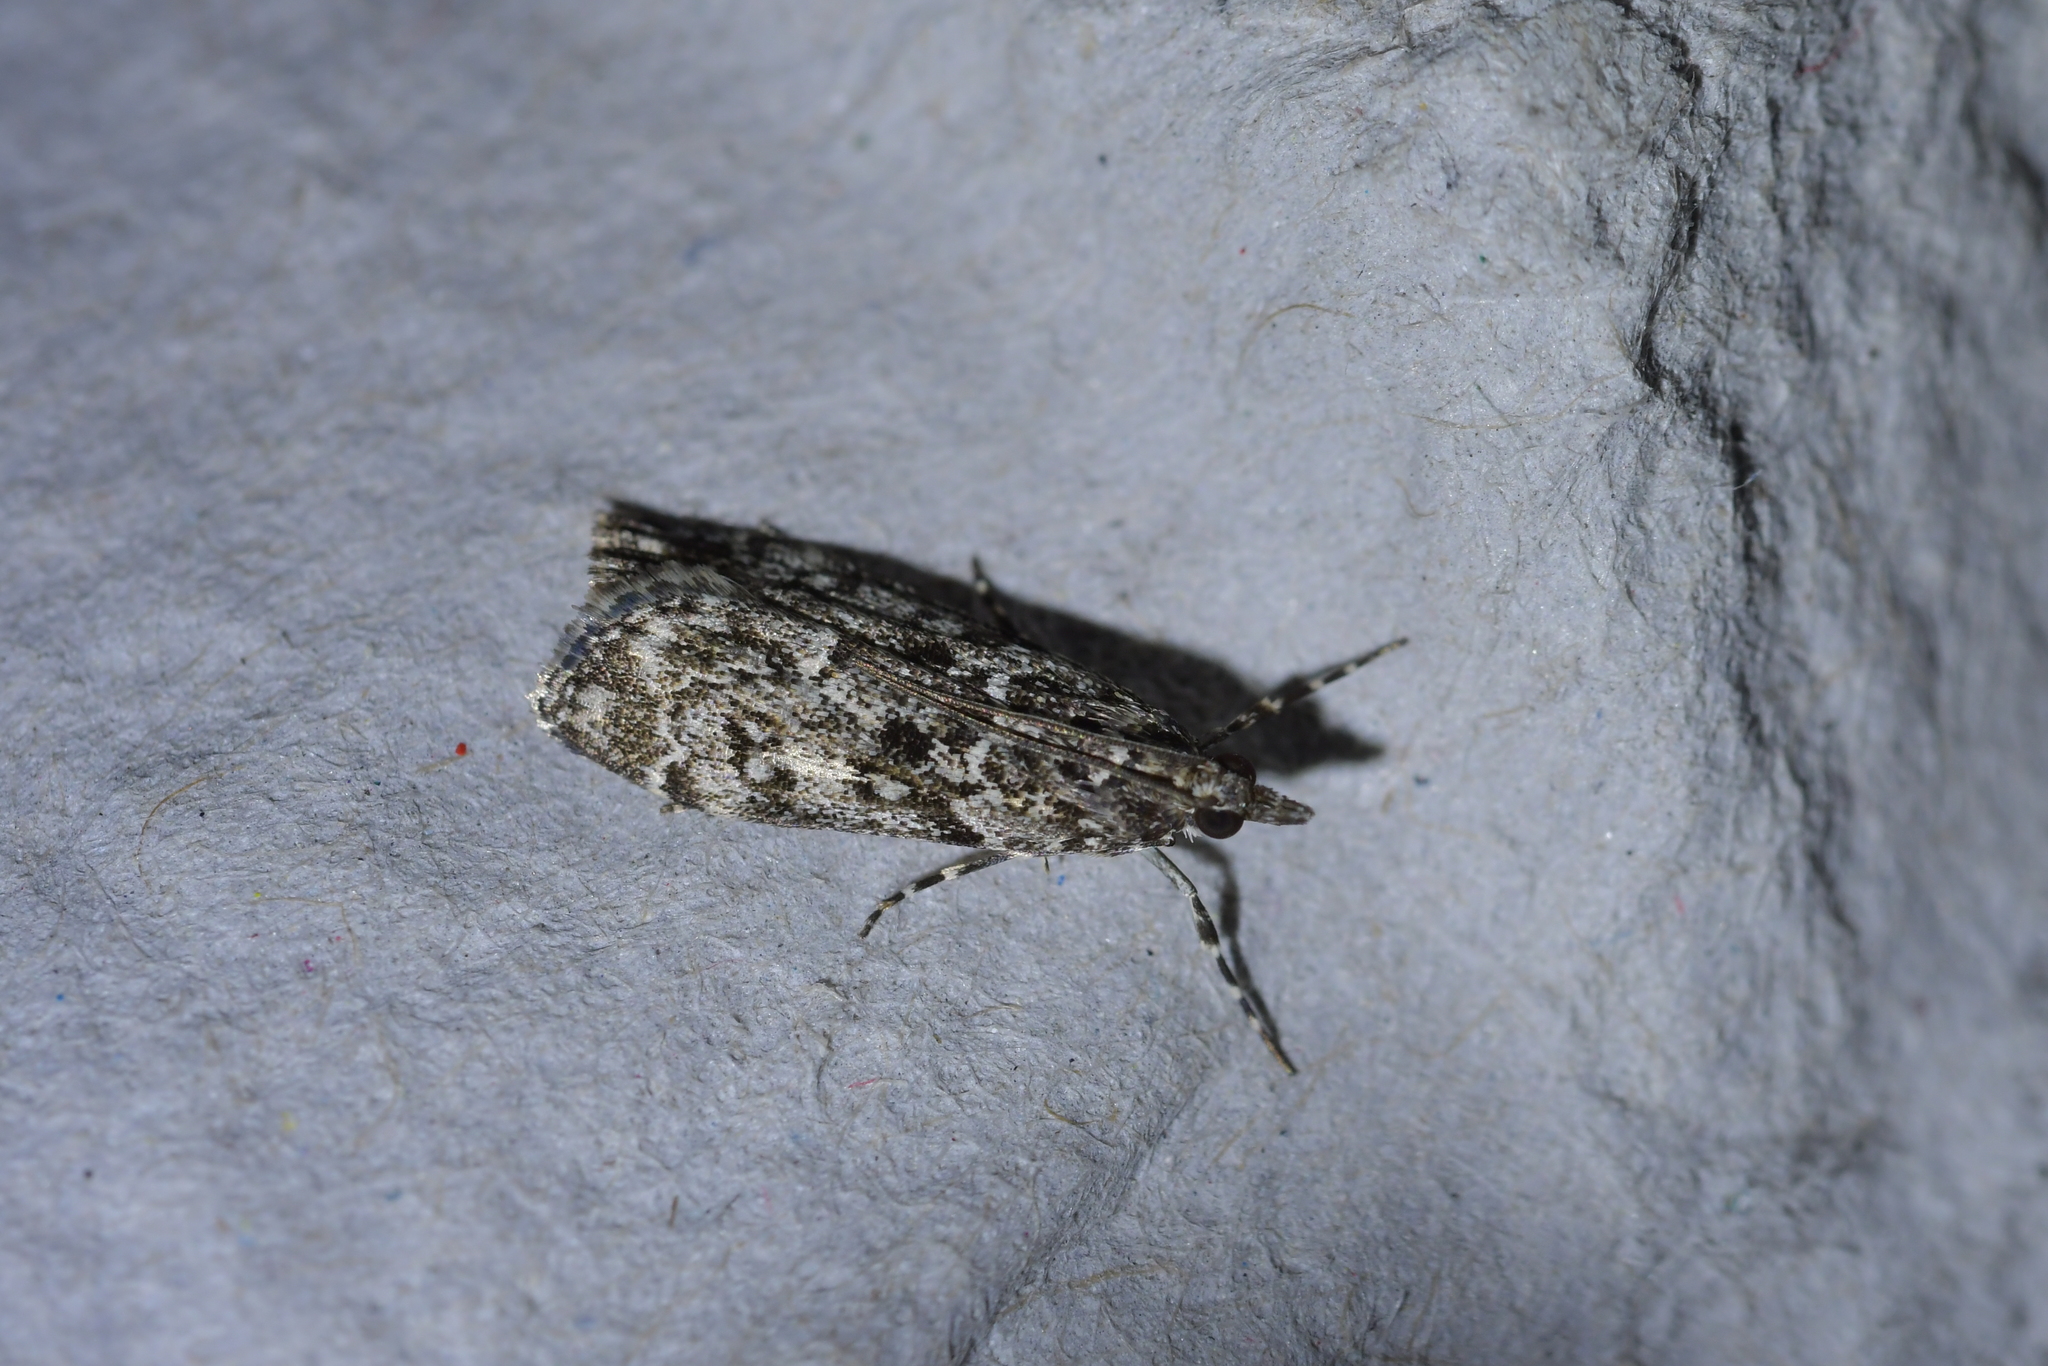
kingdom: Animalia
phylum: Arthropoda
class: Insecta
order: Lepidoptera
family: Crambidae
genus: Eudonia
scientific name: Eudonia philerga
